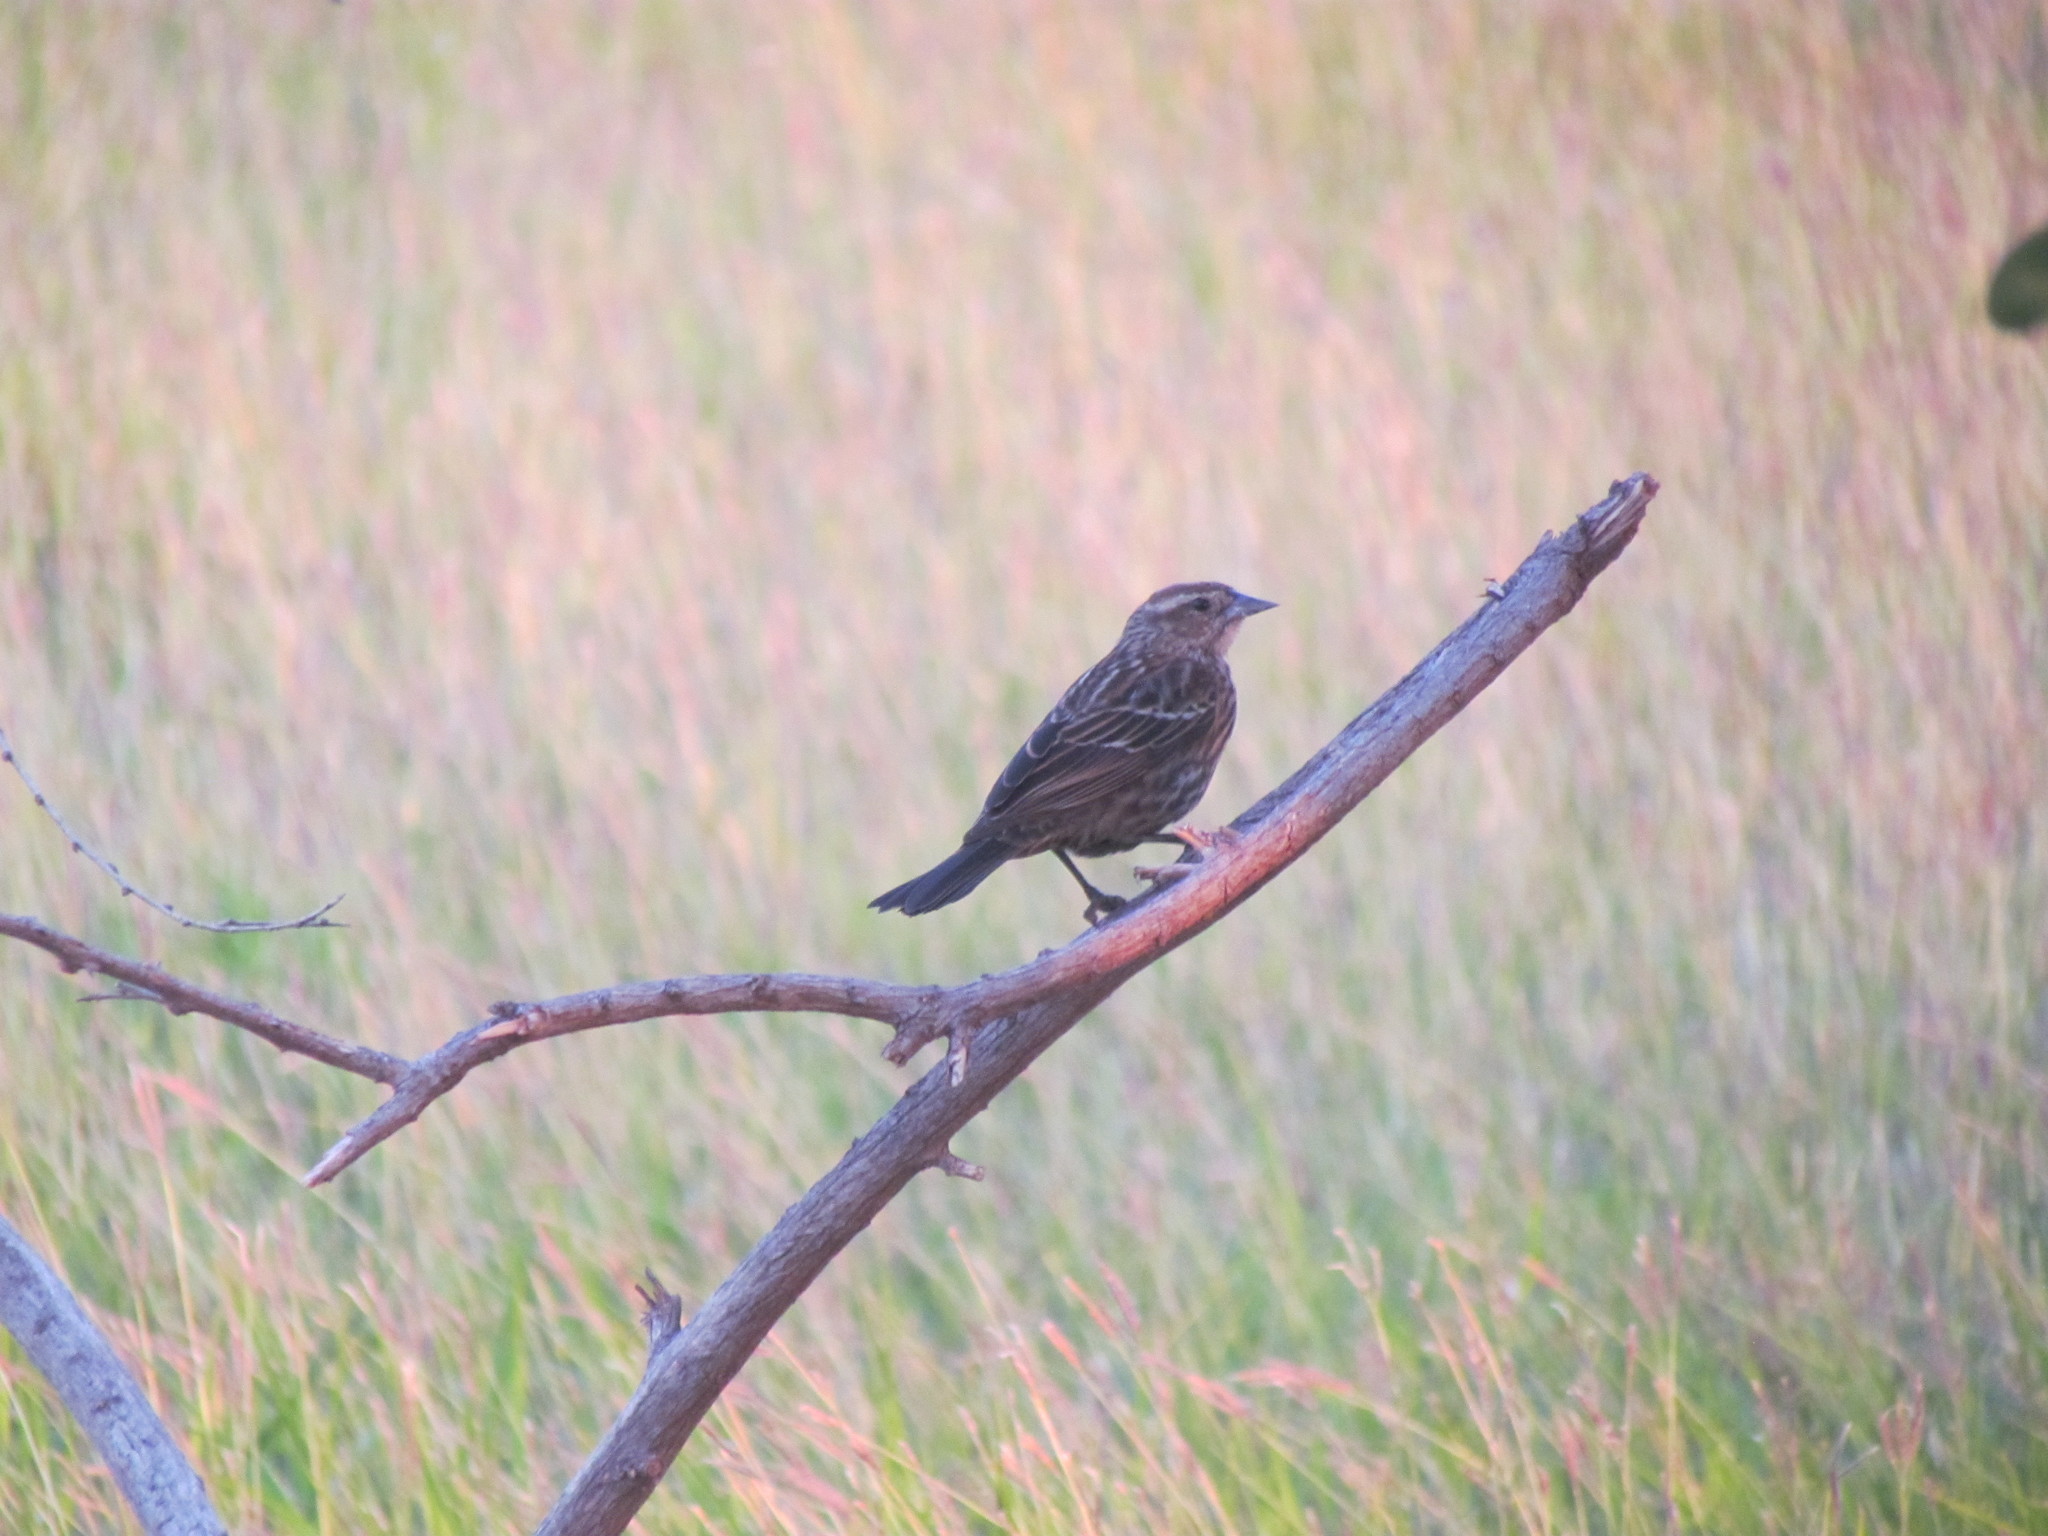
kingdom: Animalia
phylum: Chordata
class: Aves
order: Passeriformes
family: Icteridae
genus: Agelaius
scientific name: Agelaius phoeniceus
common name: Red-winged blackbird
